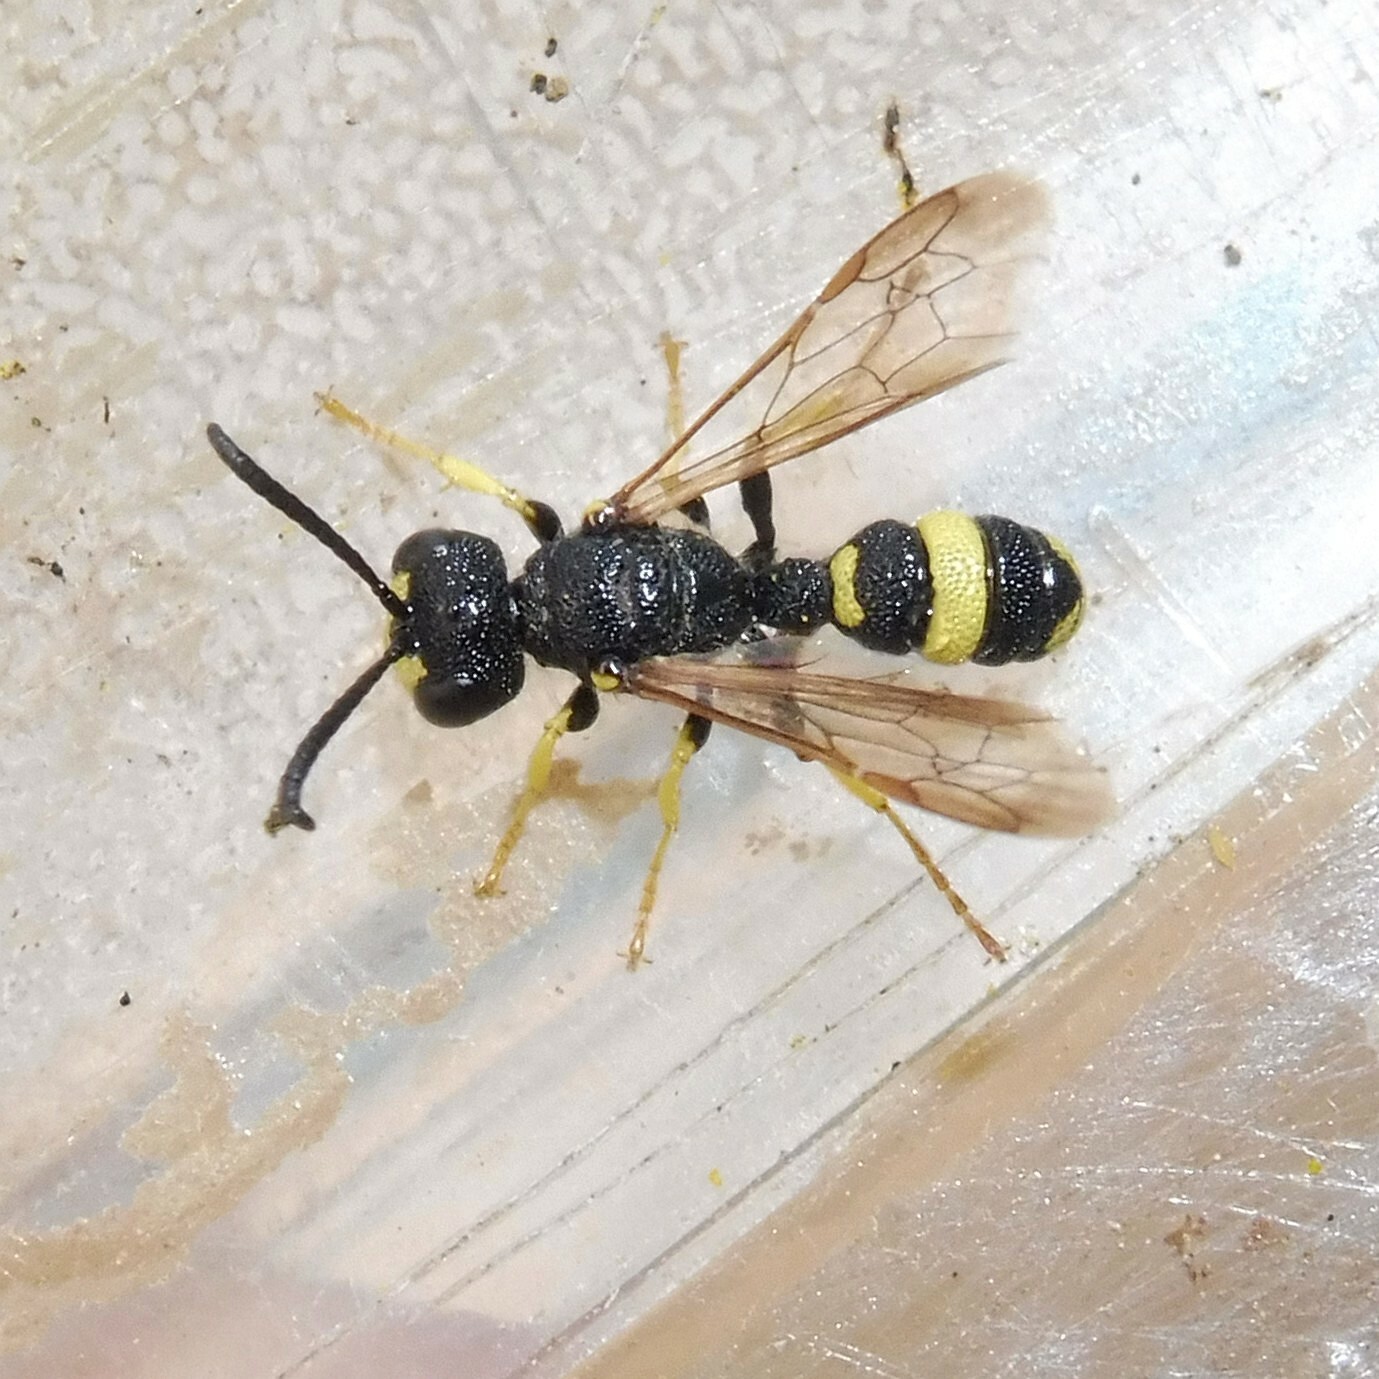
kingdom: Animalia
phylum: Arthropoda
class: Insecta
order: Hymenoptera
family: Crabronidae
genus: Cerceris
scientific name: Cerceris rybyensis
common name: Ornate tailed digger wasp
